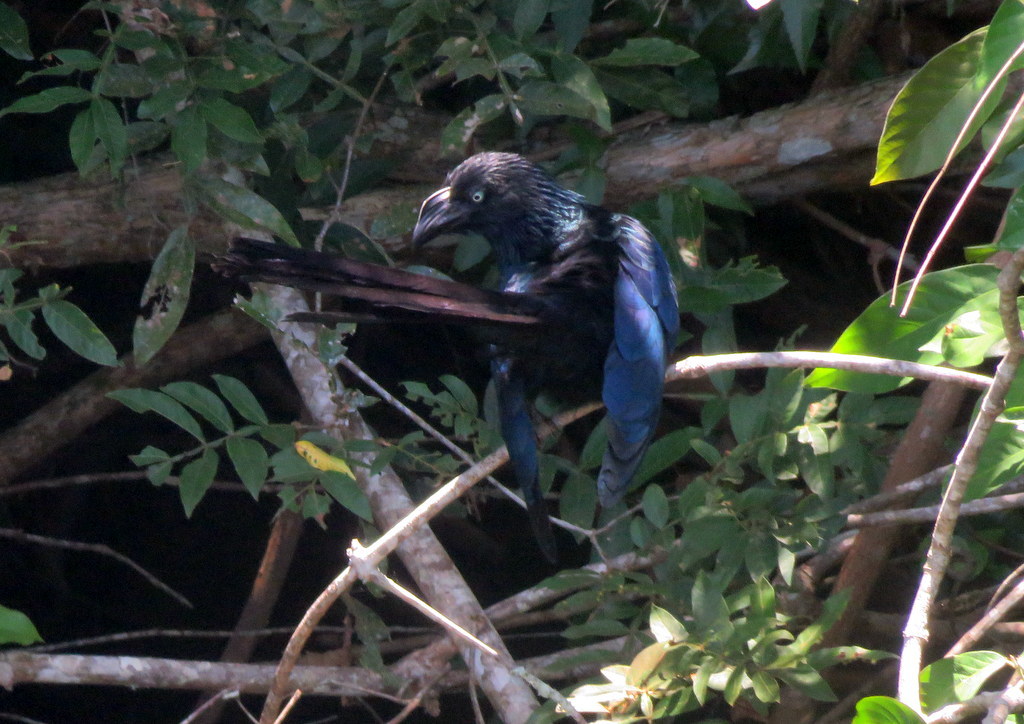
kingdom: Animalia
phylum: Chordata
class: Aves
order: Cuculiformes
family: Cuculidae
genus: Crotophaga
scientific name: Crotophaga major
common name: Greater ani
